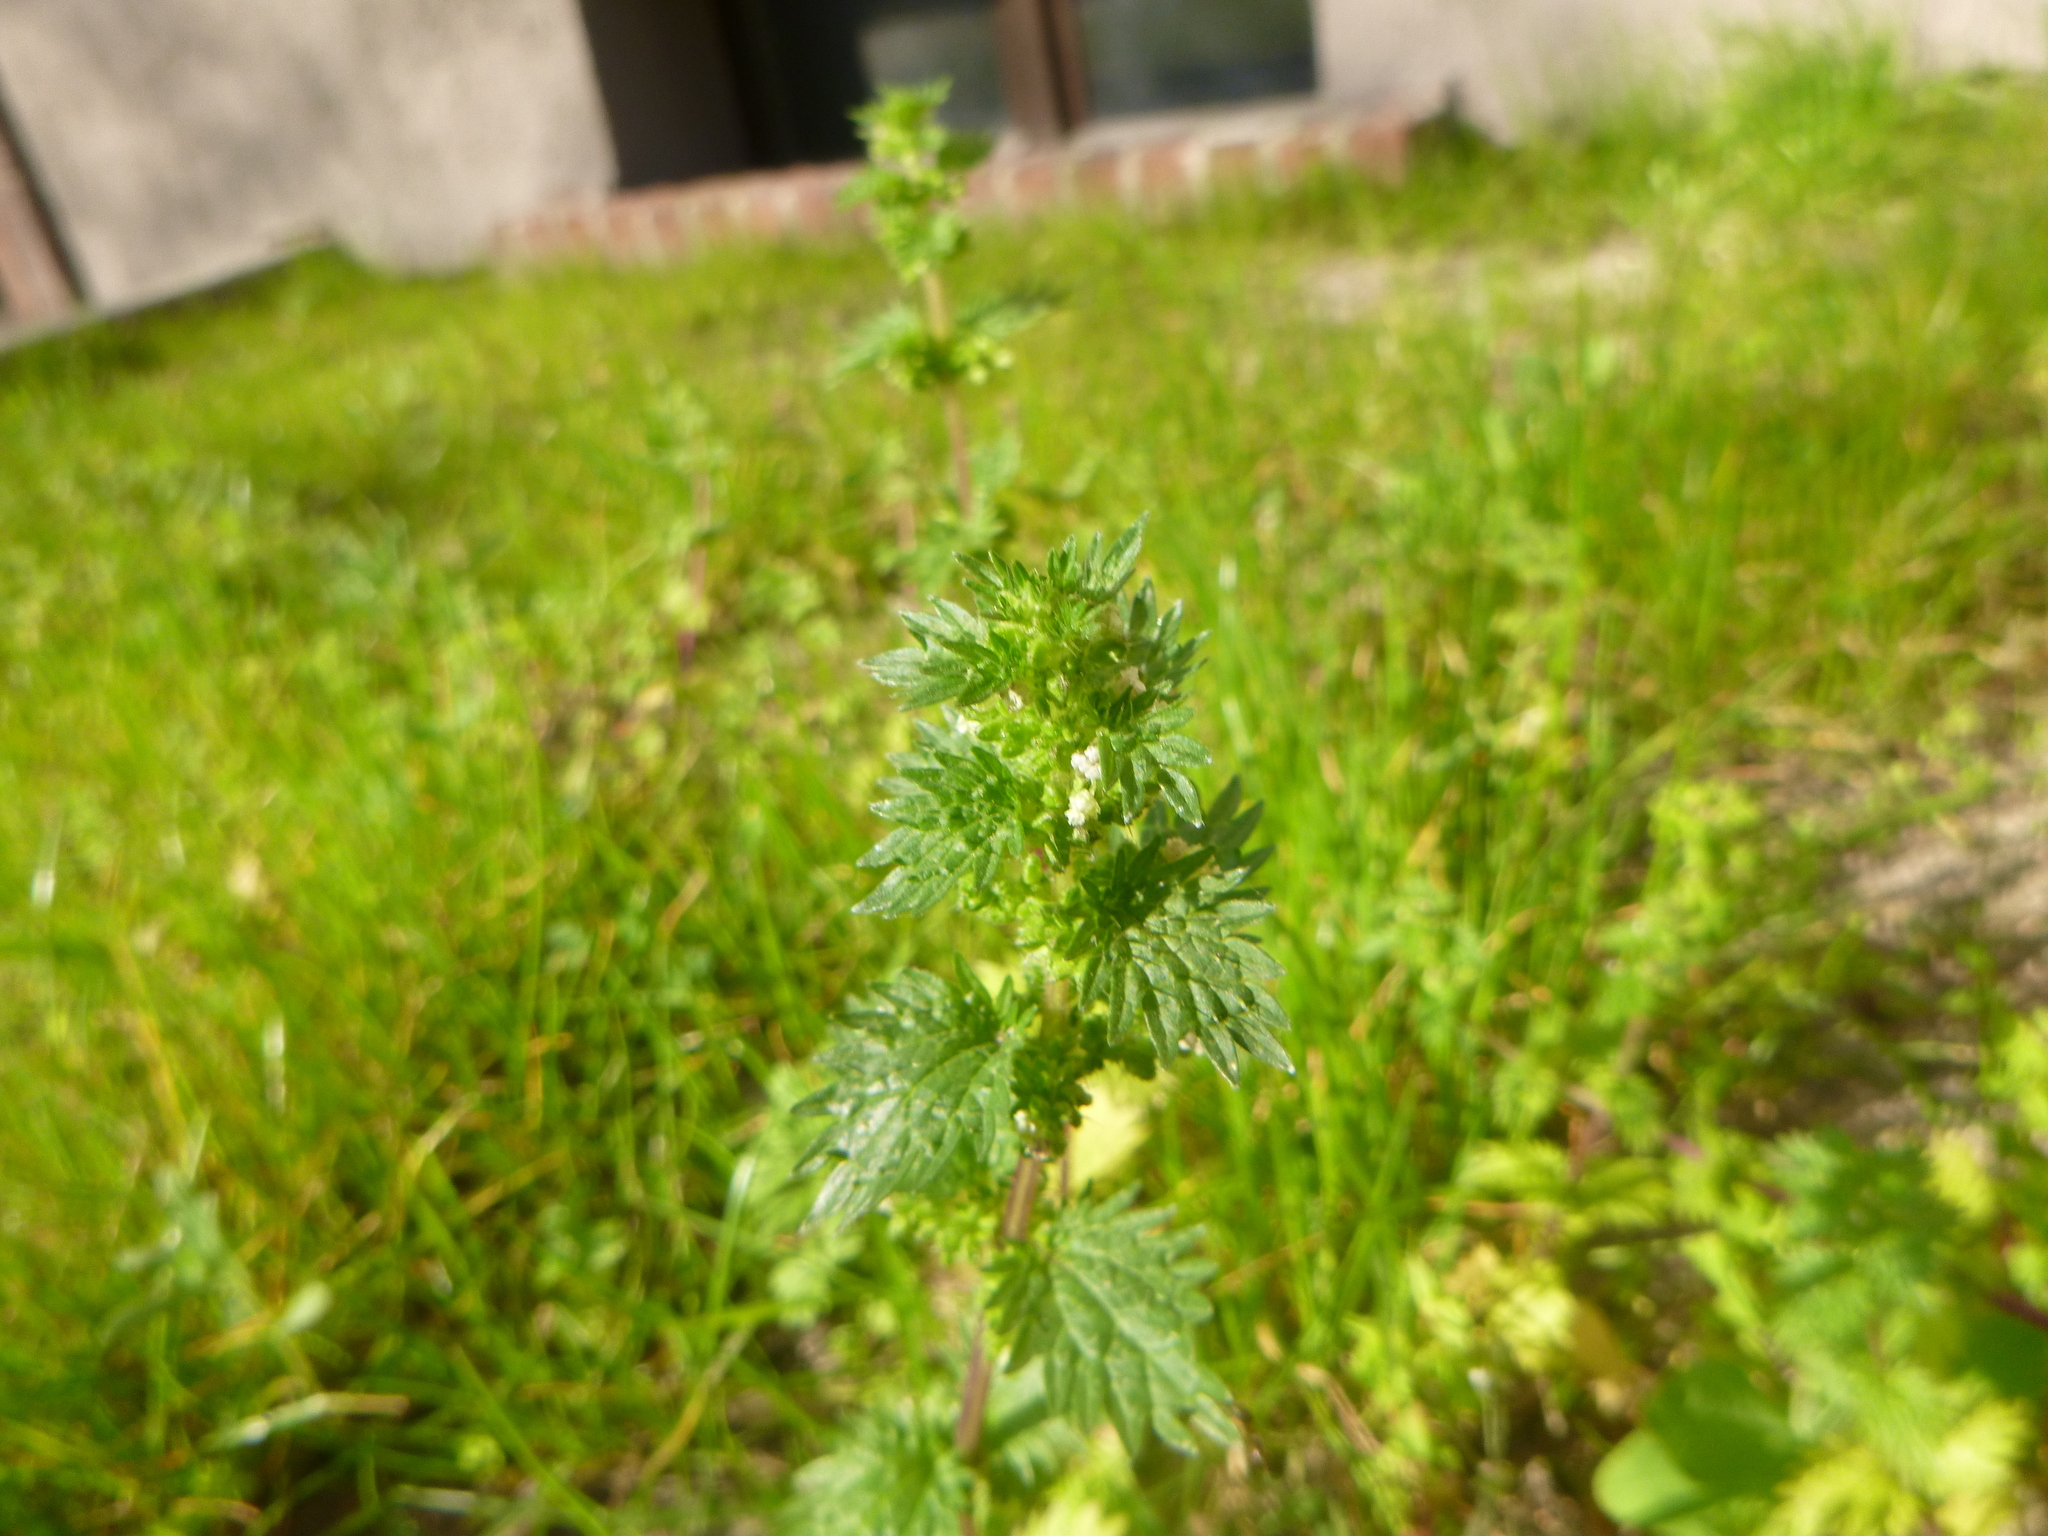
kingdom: Plantae
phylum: Tracheophyta
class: Magnoliopsida
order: Rosales
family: Urticaceae
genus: Urtica
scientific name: Urtica urens
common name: Dwarf nettle
